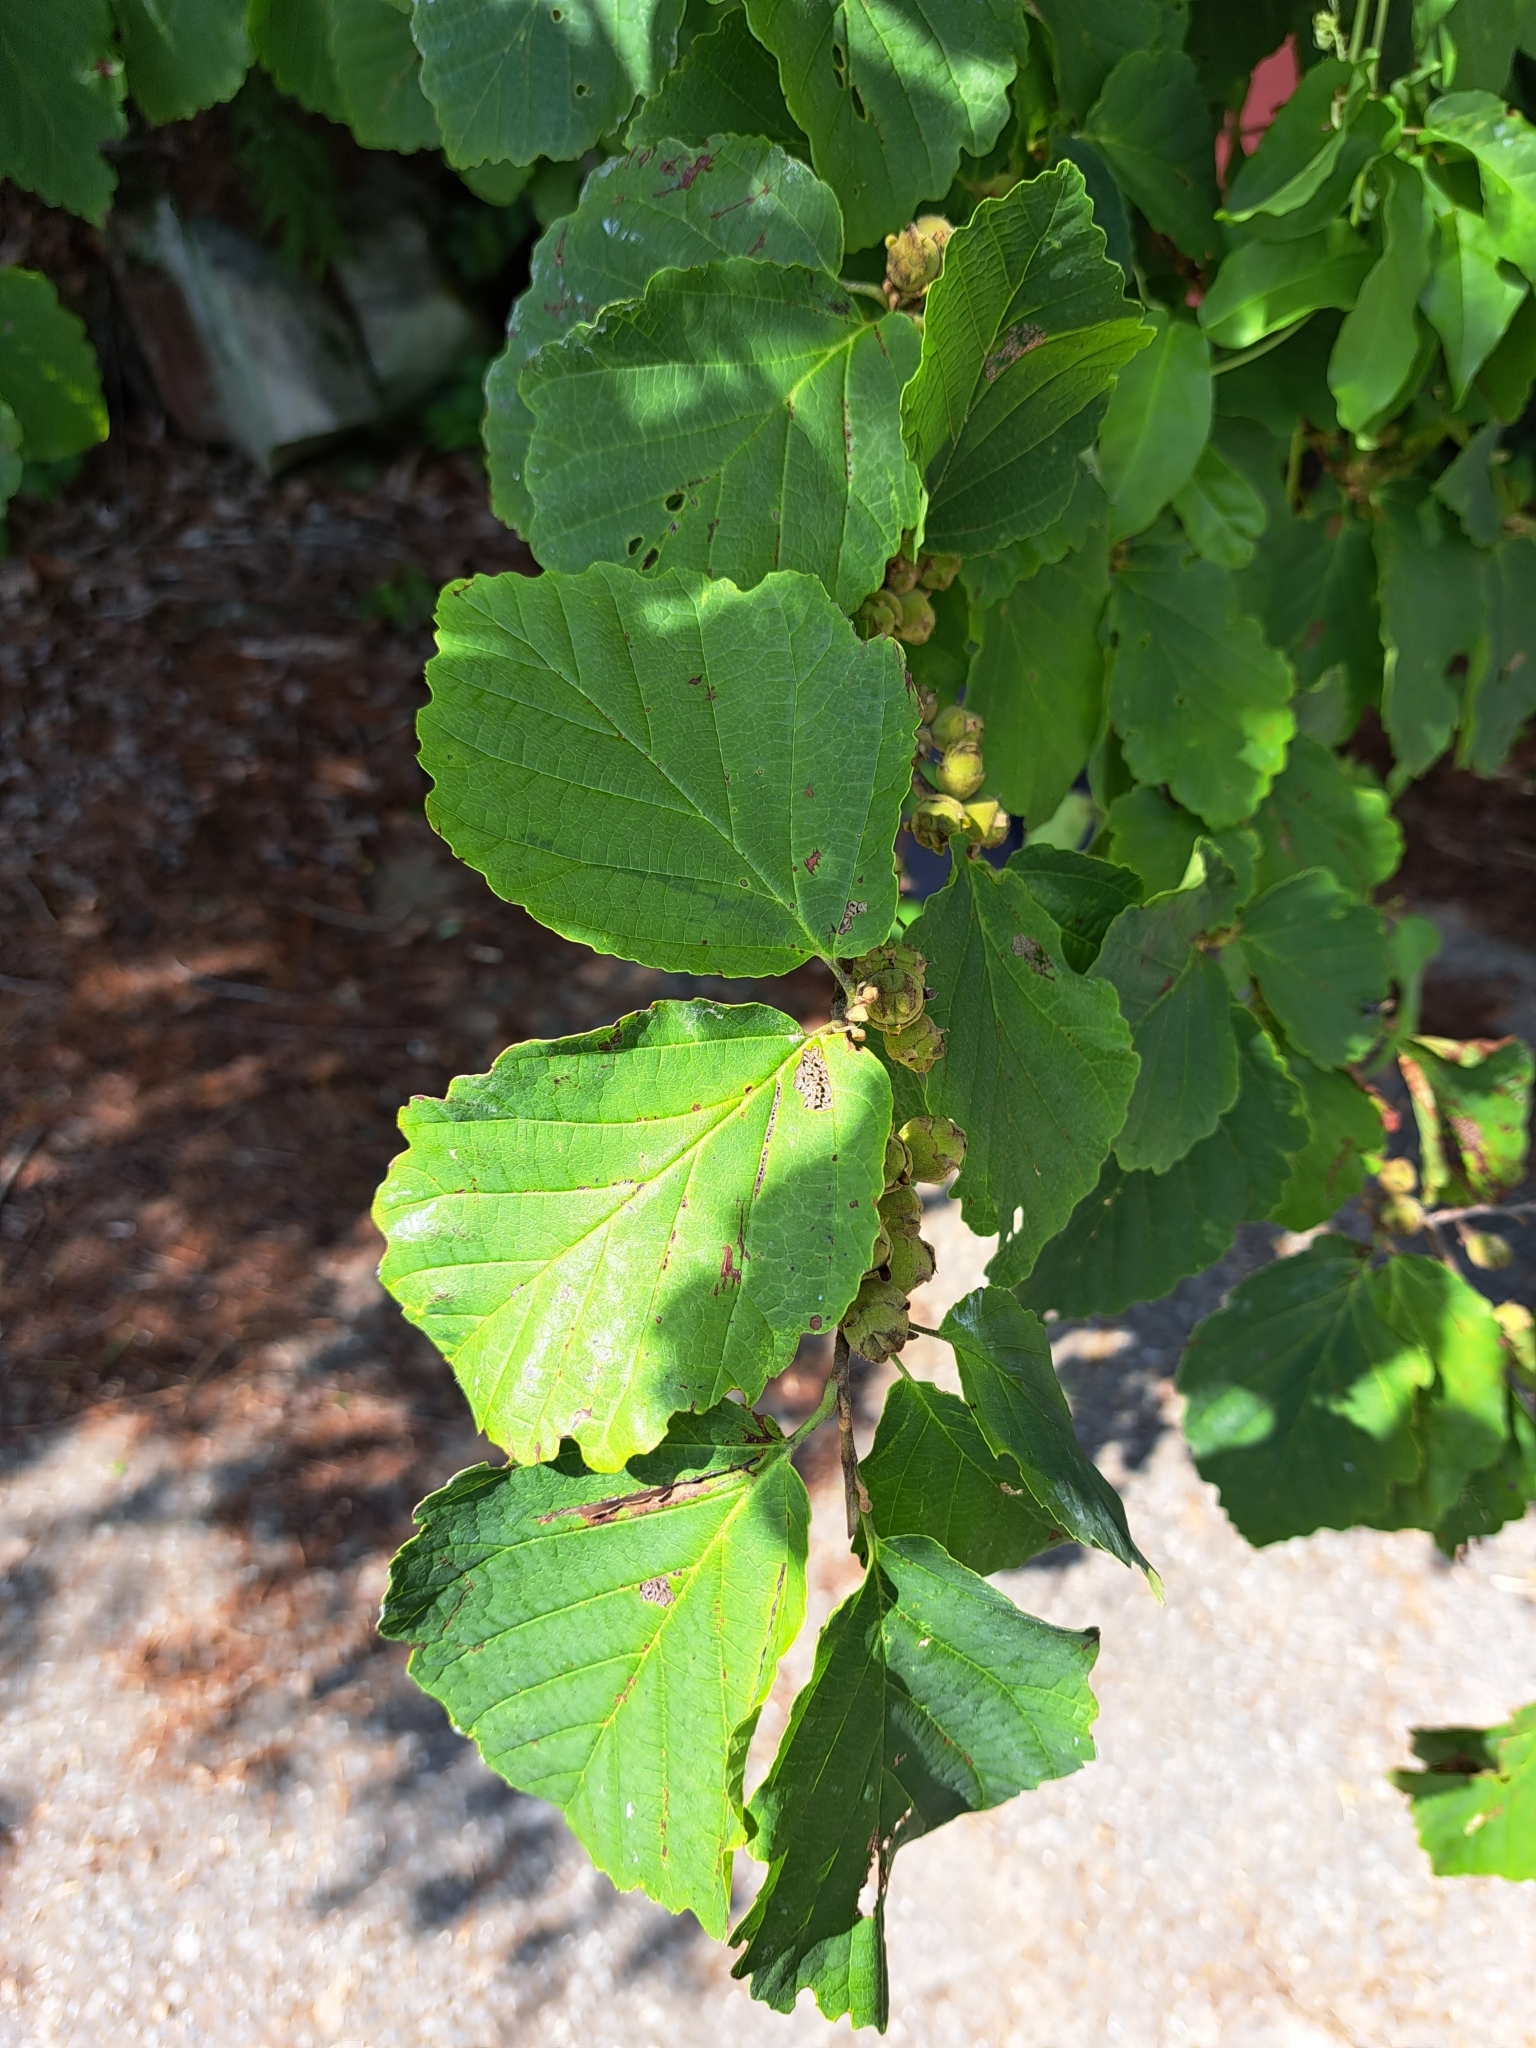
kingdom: Plantae
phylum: Tracheophyta
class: Magnoliopsida
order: Saxifragales
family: Hamamelidaceae
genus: Hamamelis
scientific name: Hamamelis virginiana
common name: Witch-hazel
